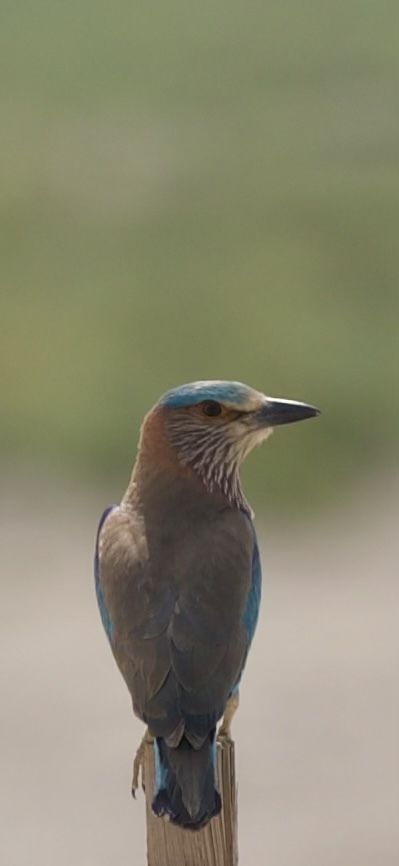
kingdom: Animalia
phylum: Chordata
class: Aves
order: Coraciiformes
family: Coraciidae
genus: Coracias
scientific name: Coracias benghalensis
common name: Indian roller
